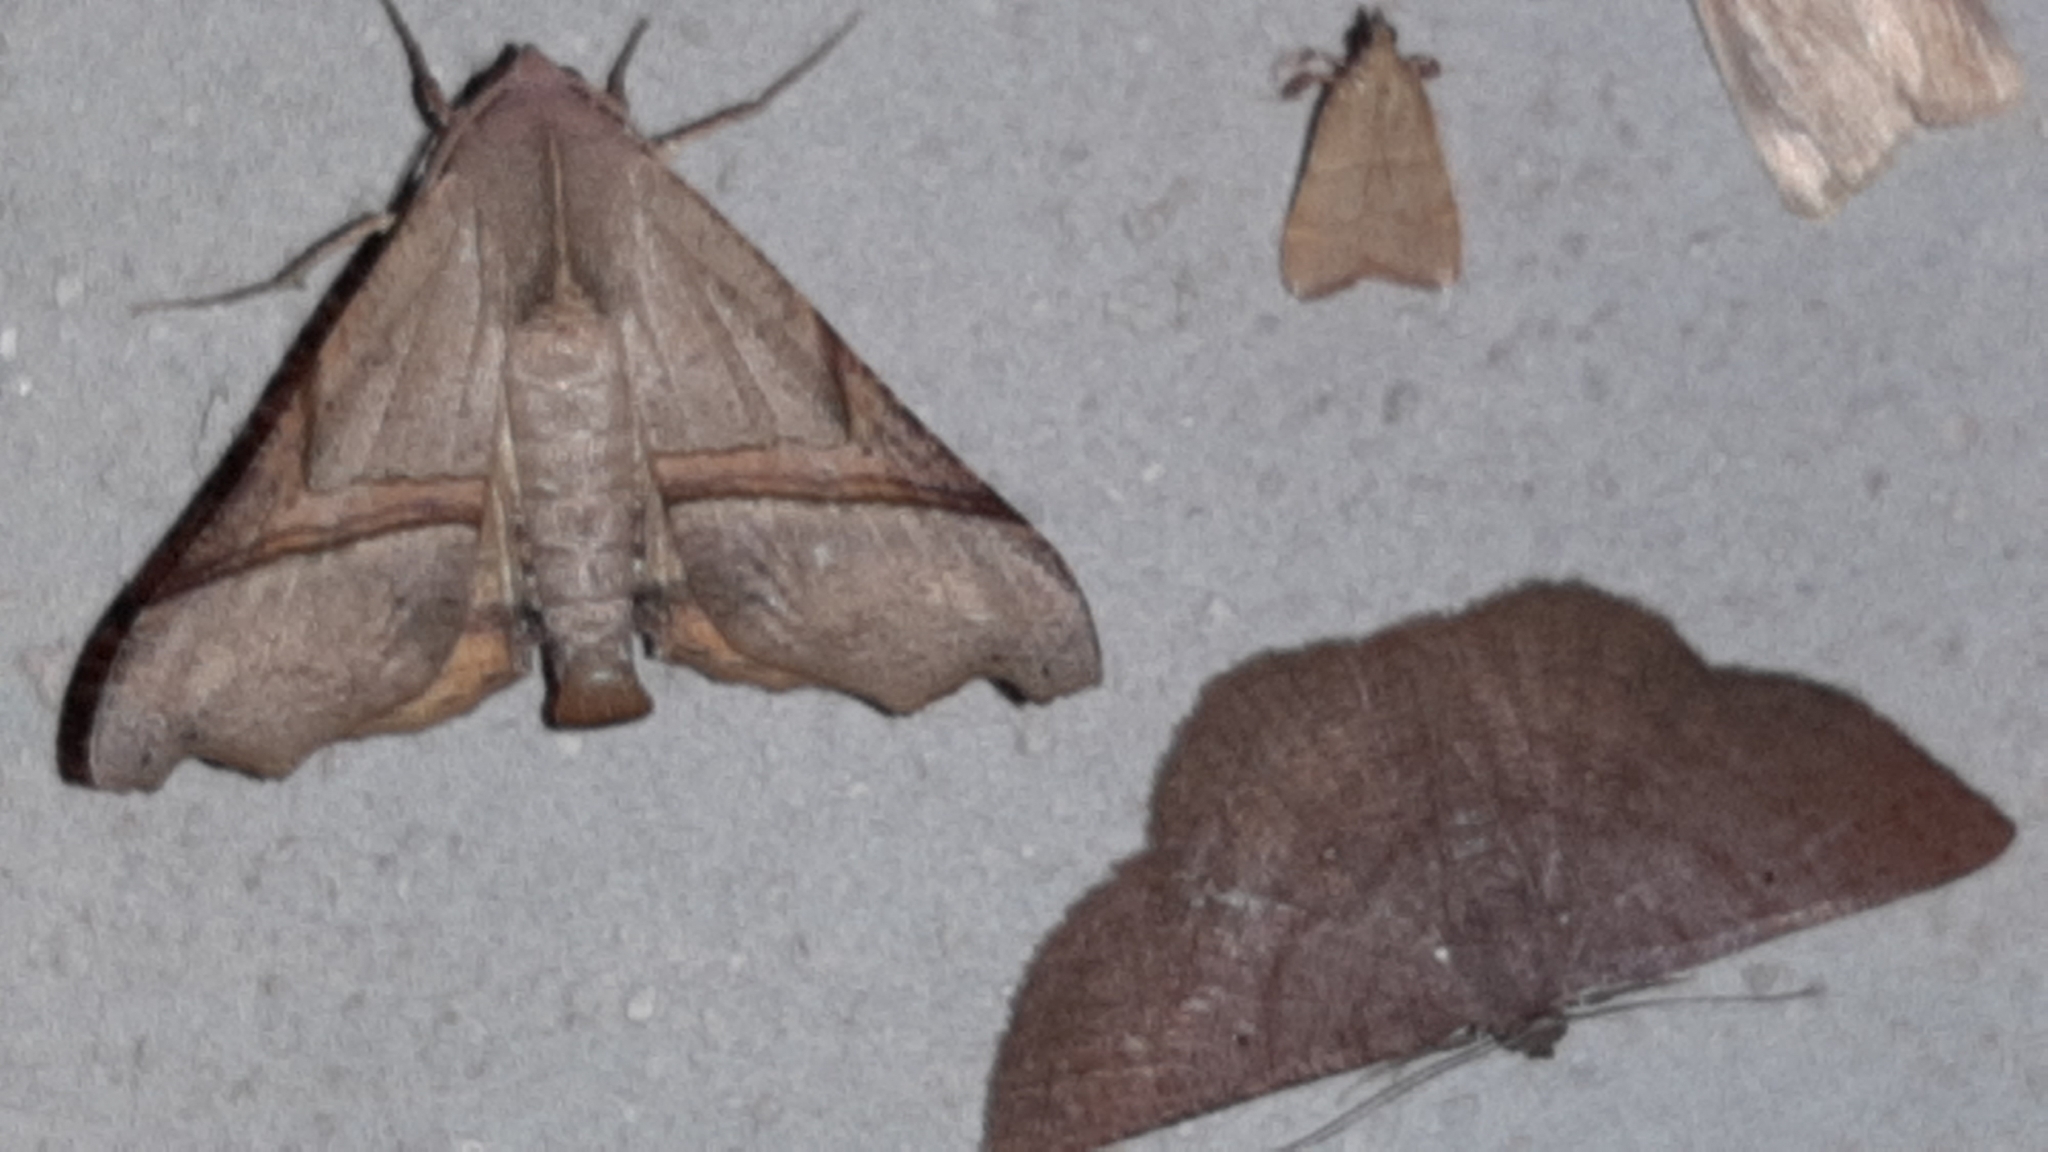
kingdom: Animalia
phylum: Arthropoda
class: Insecta
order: Lepidoptera
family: Geometridae
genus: Pero
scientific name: Pero amanda
